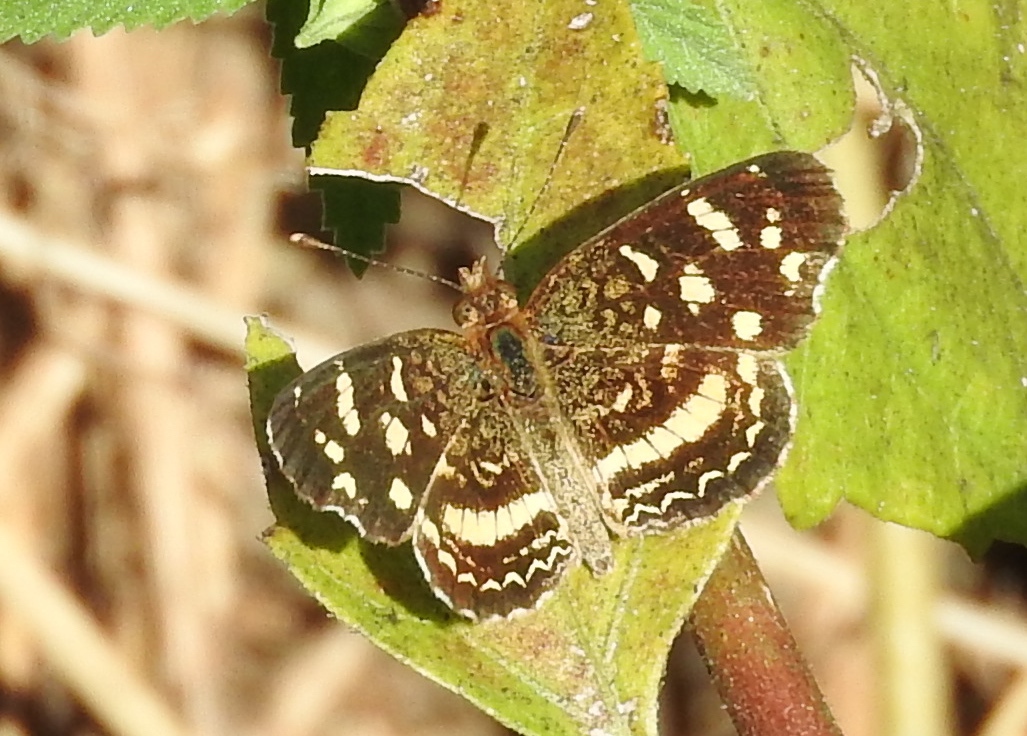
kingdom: Animalia
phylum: Arthropoda
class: Insecta
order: Lepidoptera
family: Nymphalidae
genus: Anthanassa
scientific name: Anthanassa tulcis
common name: Pale-banded crescent
